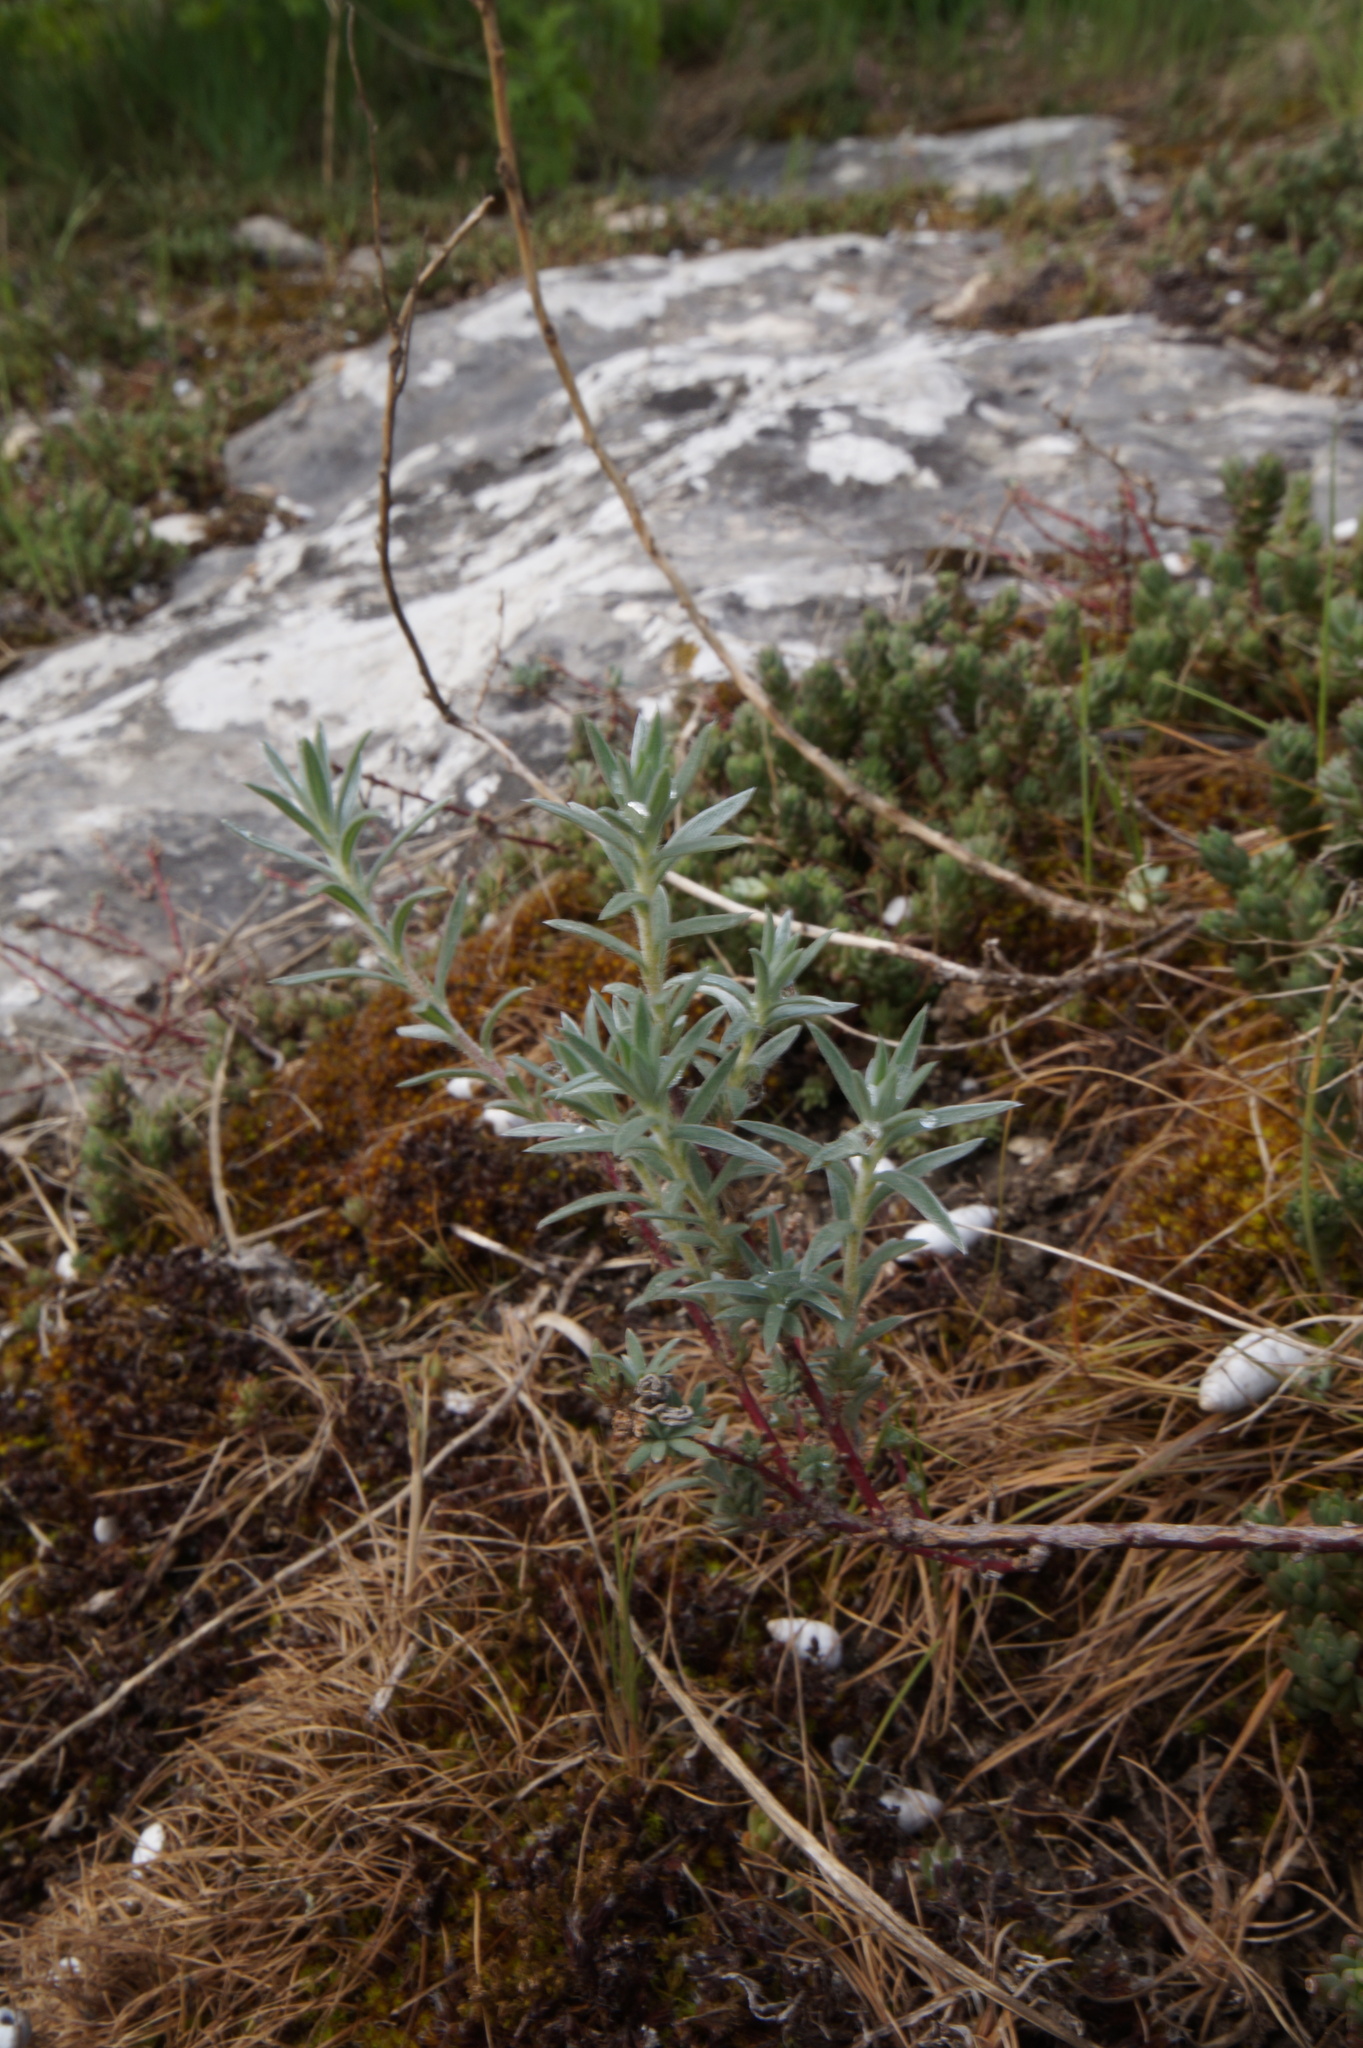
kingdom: Plantae
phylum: Tracheophyta
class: Magnoliopsida
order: Caryophyllales
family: Amaranthaceae
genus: Bassia
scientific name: Bassia prostrata
